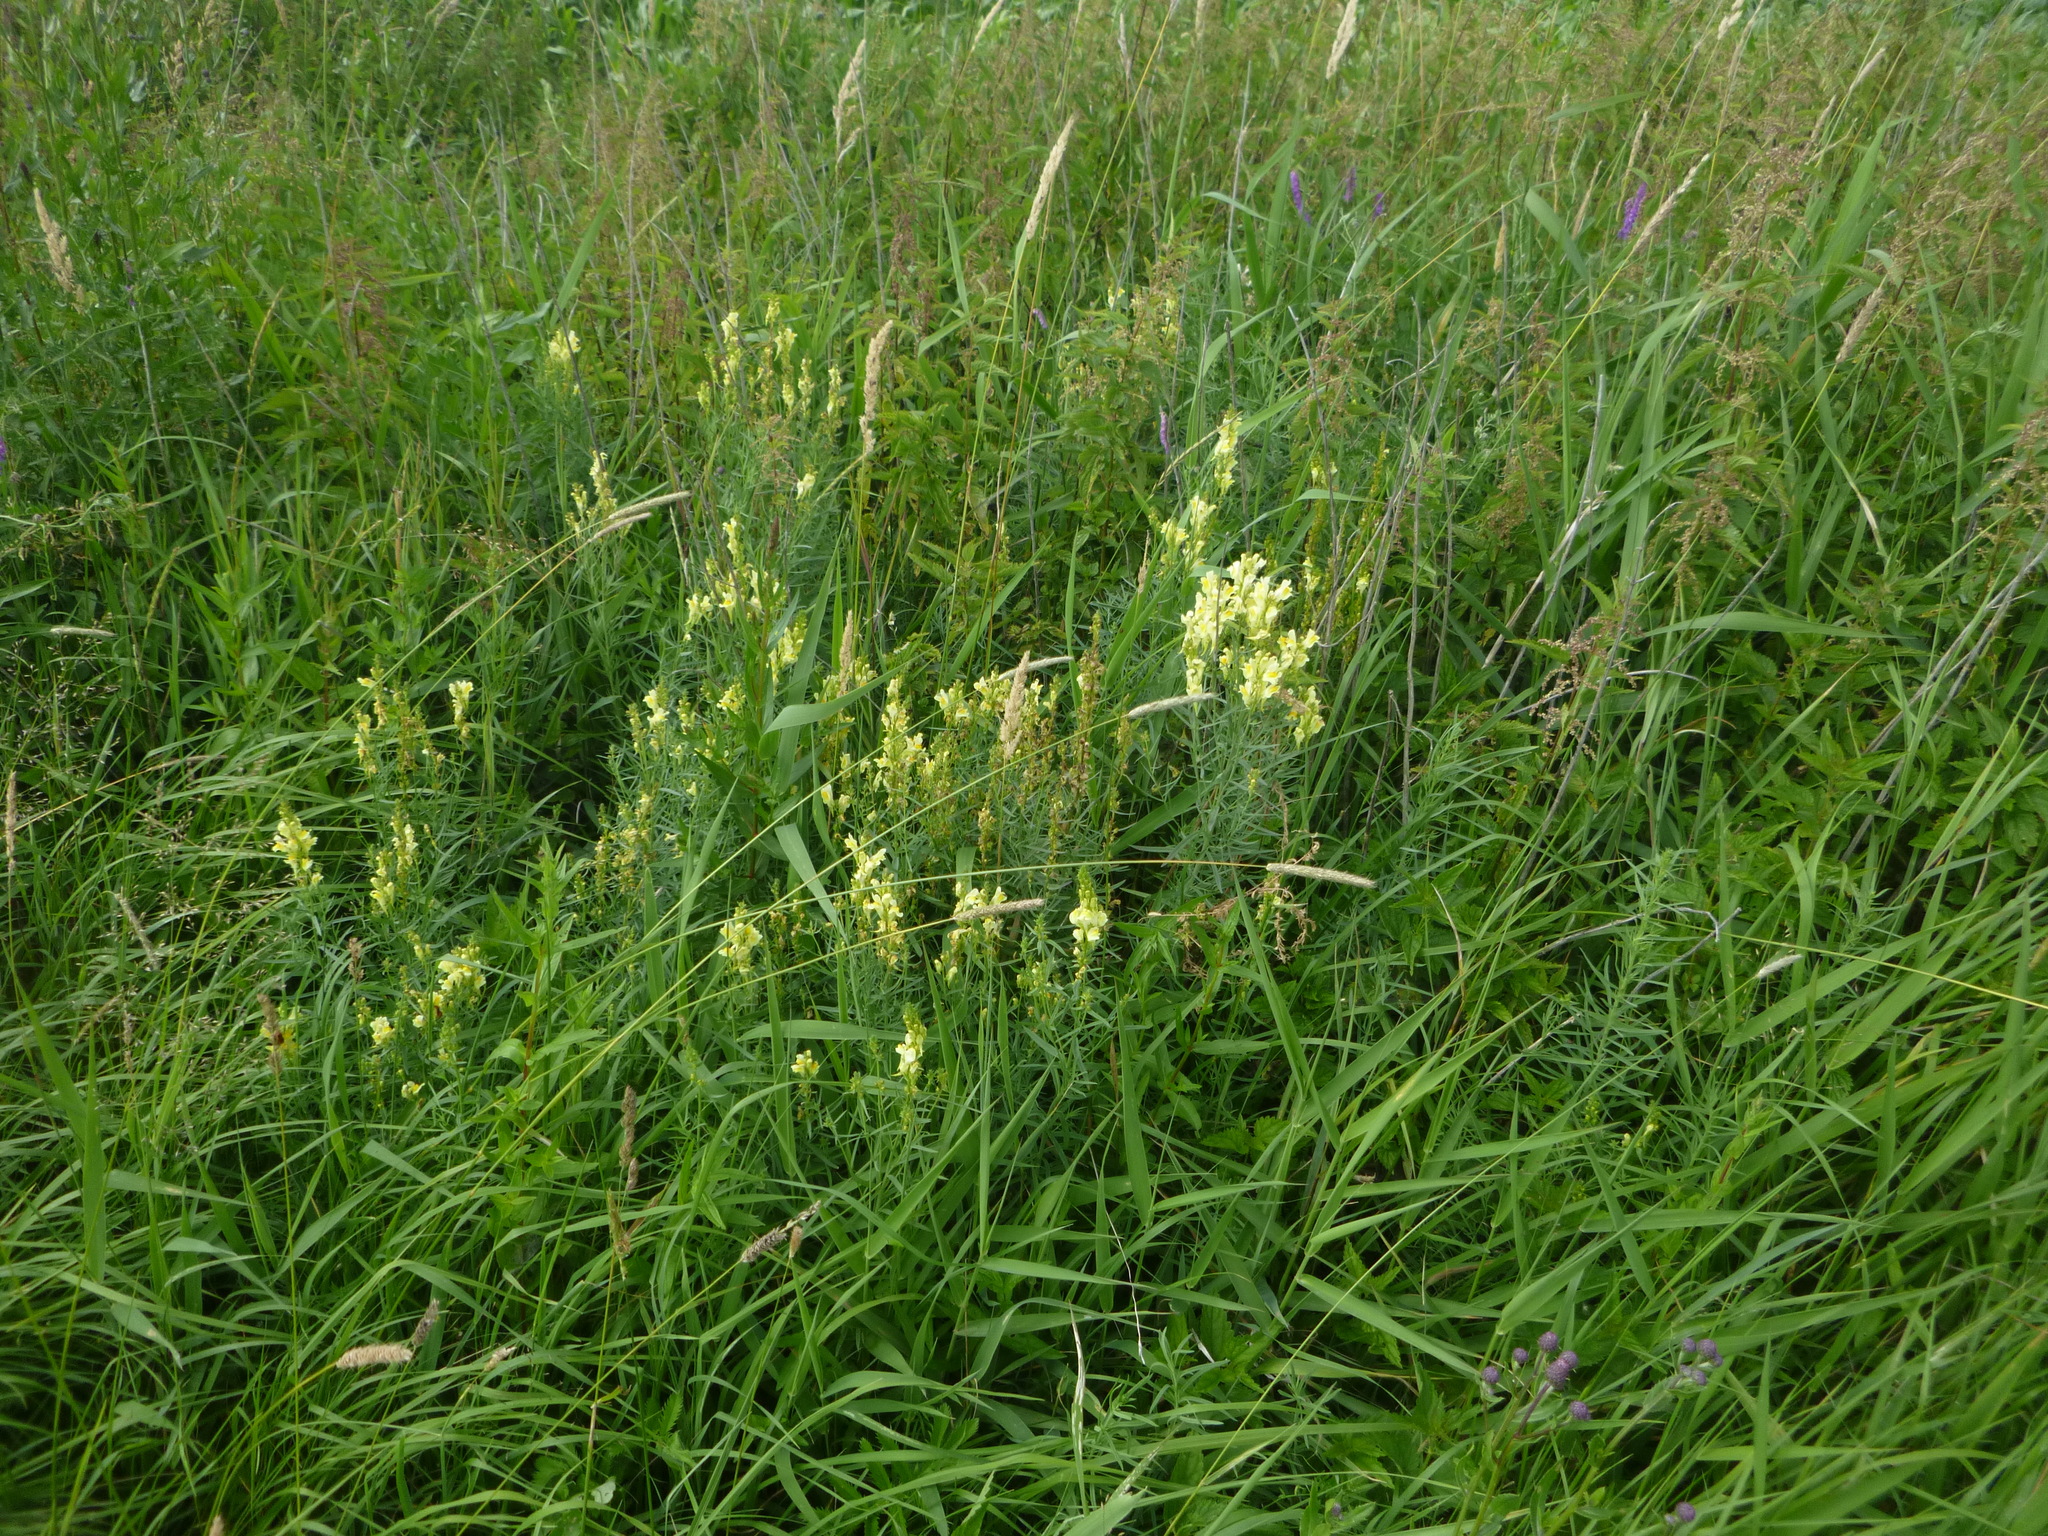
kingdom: Plantae
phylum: Tracheophyta
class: Magnoliopsida
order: Lamiales
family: Plantaginaceae
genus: Linaria
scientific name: Linaria vulgaris
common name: Butter and eggs
